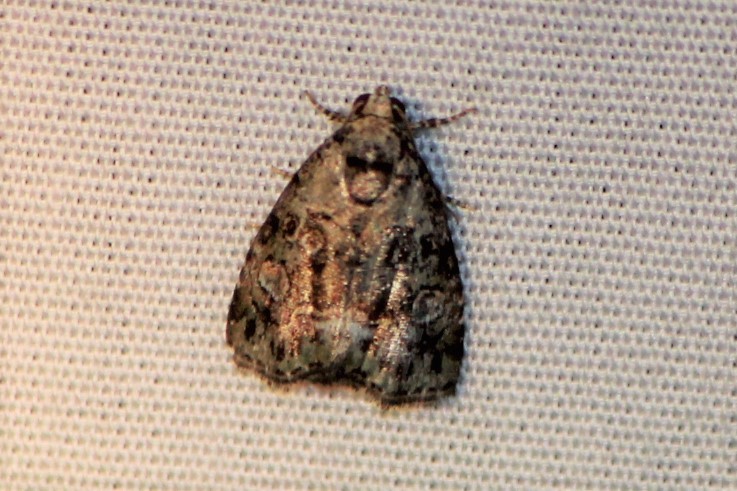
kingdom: Animalia
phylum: Arthropoda
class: Insecta
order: Lepidoptera
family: Noctuidae
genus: Protodeltote
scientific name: Protodeltote muscosula
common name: Large mossy glyph
